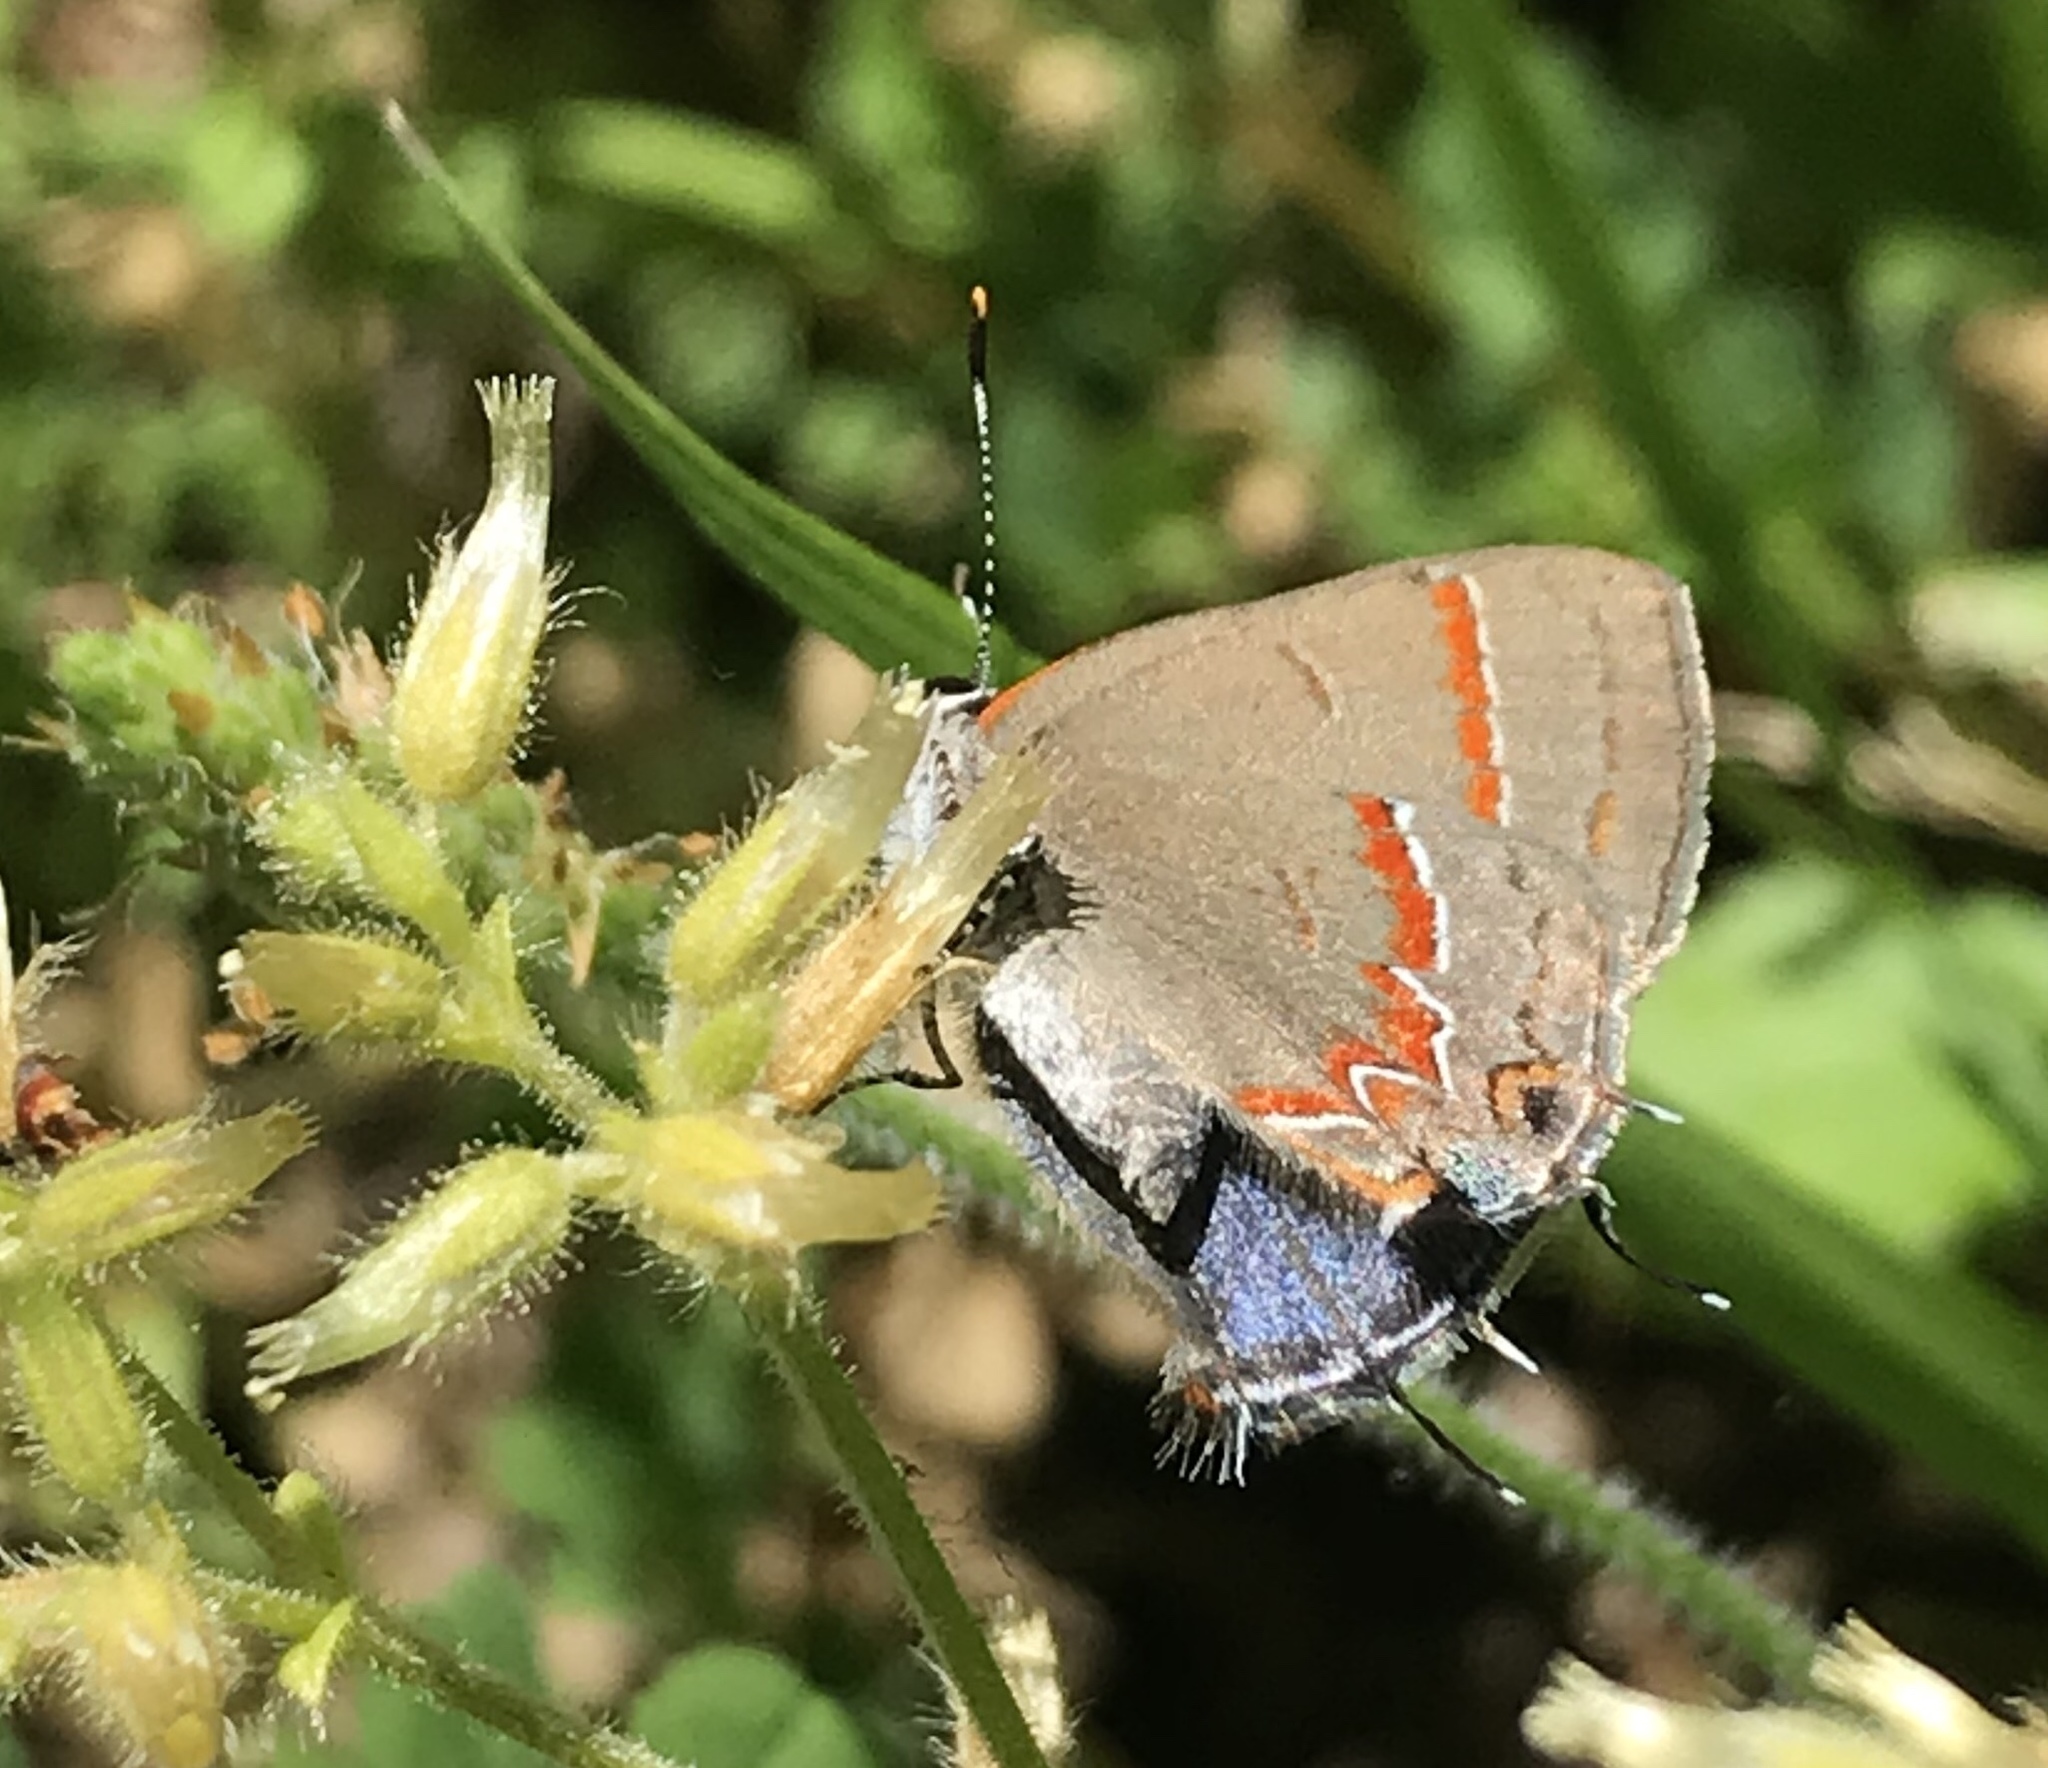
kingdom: Animalia
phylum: Arthropoda
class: Insecta
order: Lepidoptera
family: Lycaenidae
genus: Calycopis
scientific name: Calycopis cecrops
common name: Red-banded hairstreak
